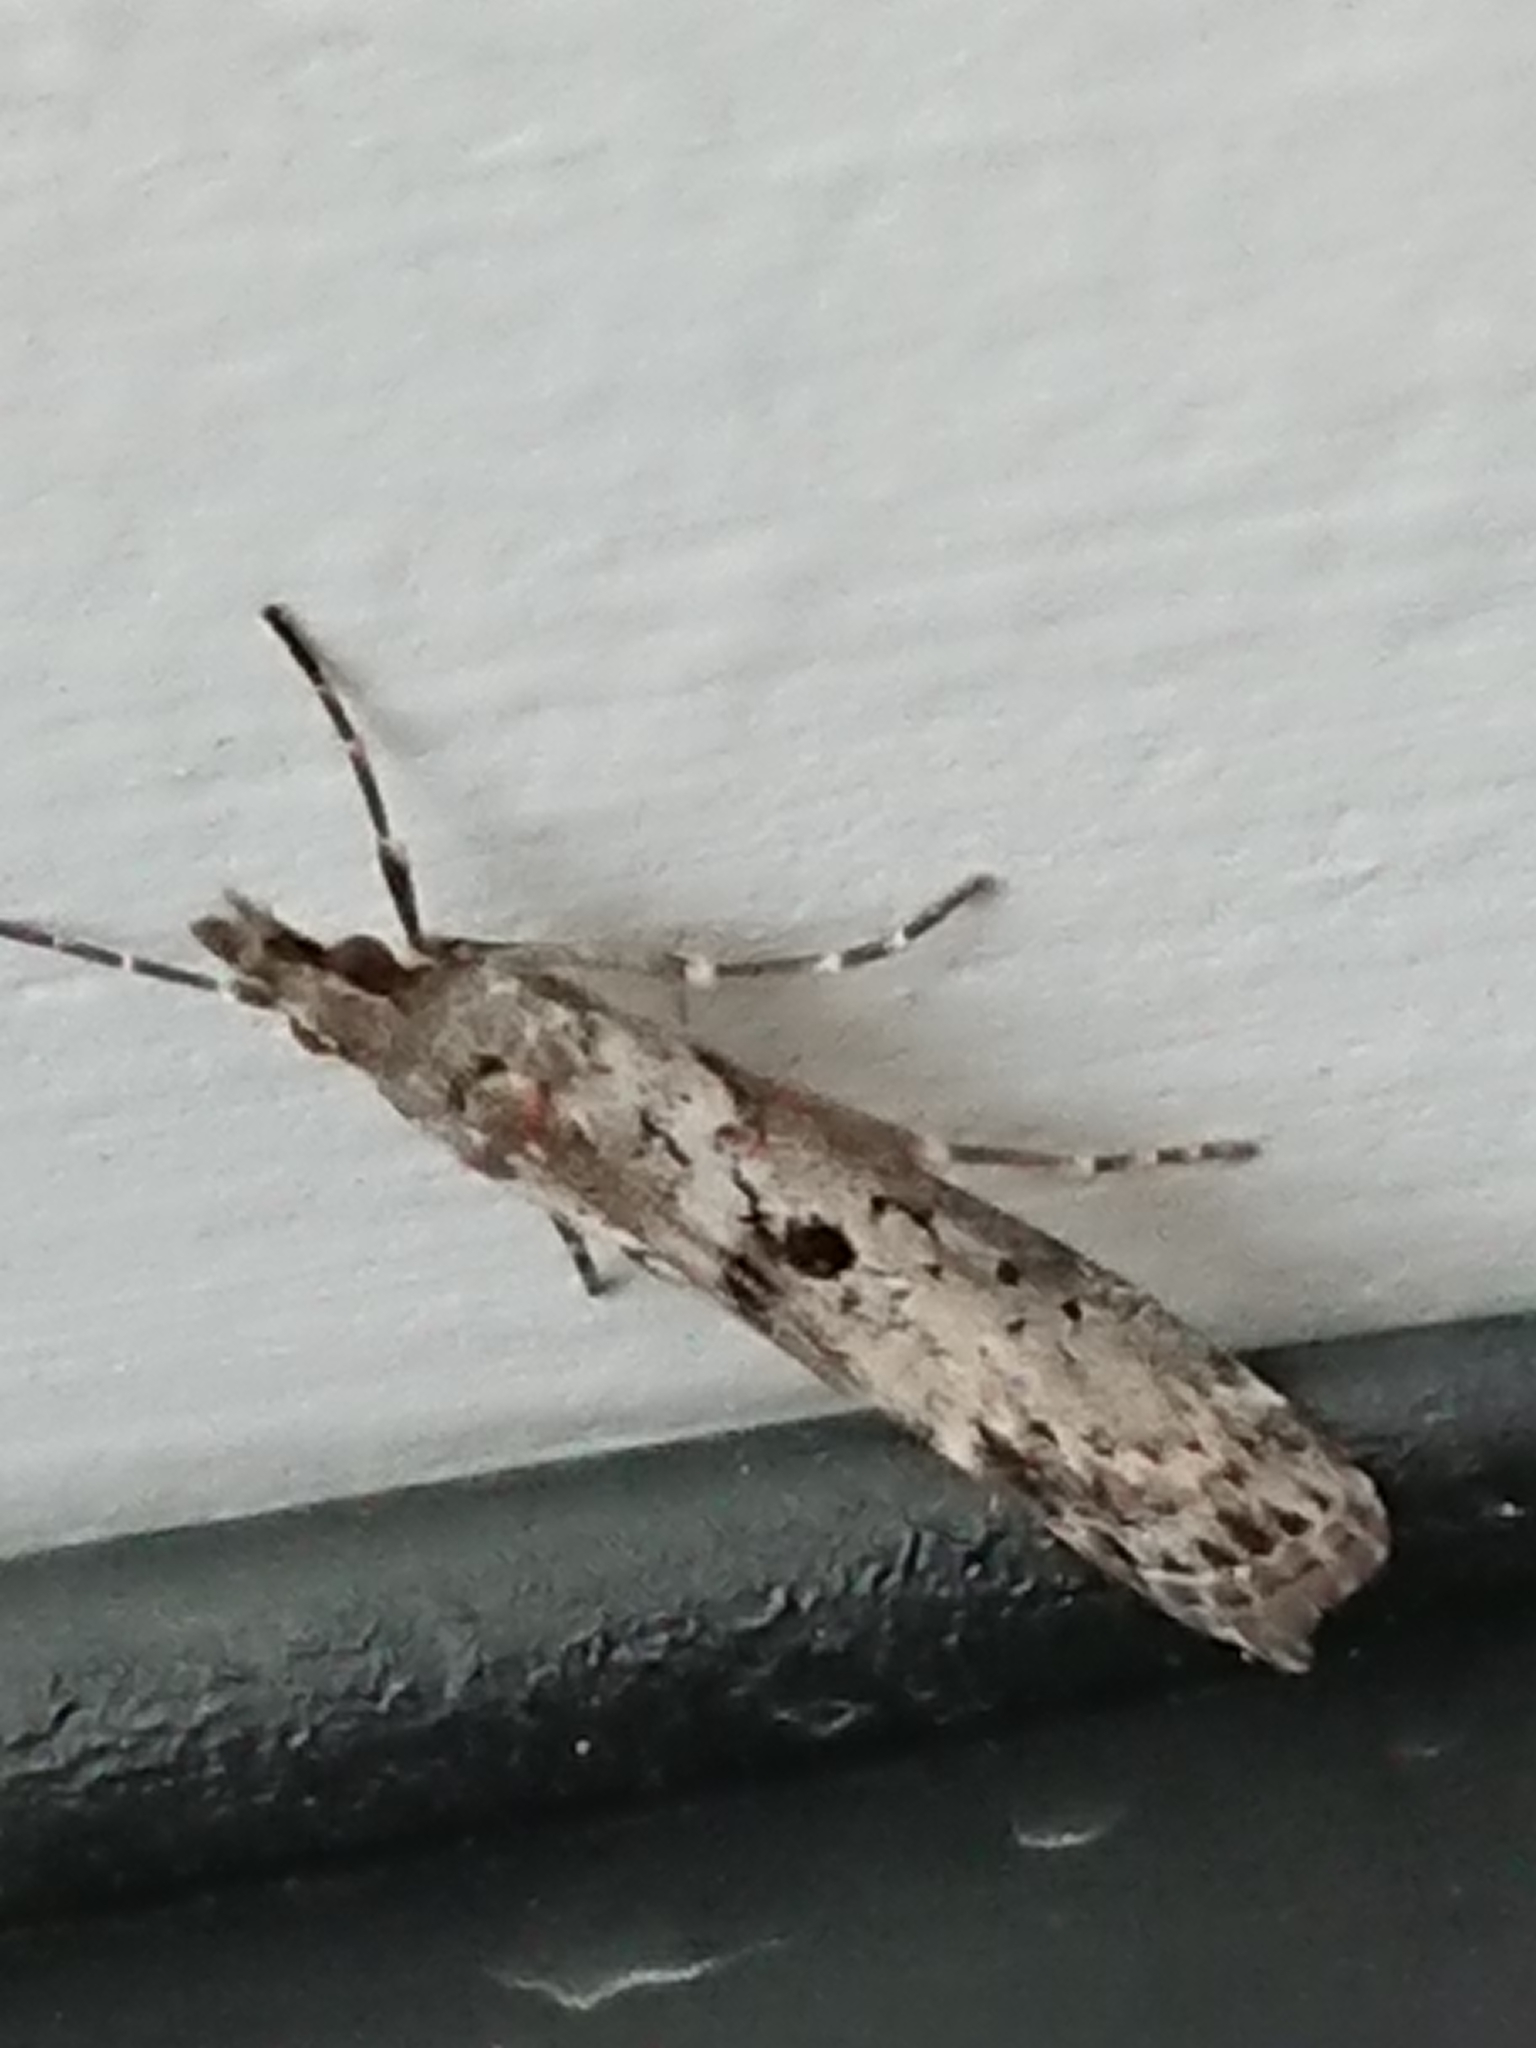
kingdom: Animalia
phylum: Arthropoda
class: Insecta
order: Lepidoptera
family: Crambidae
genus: Eudonia
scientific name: Eudonia leptalea
